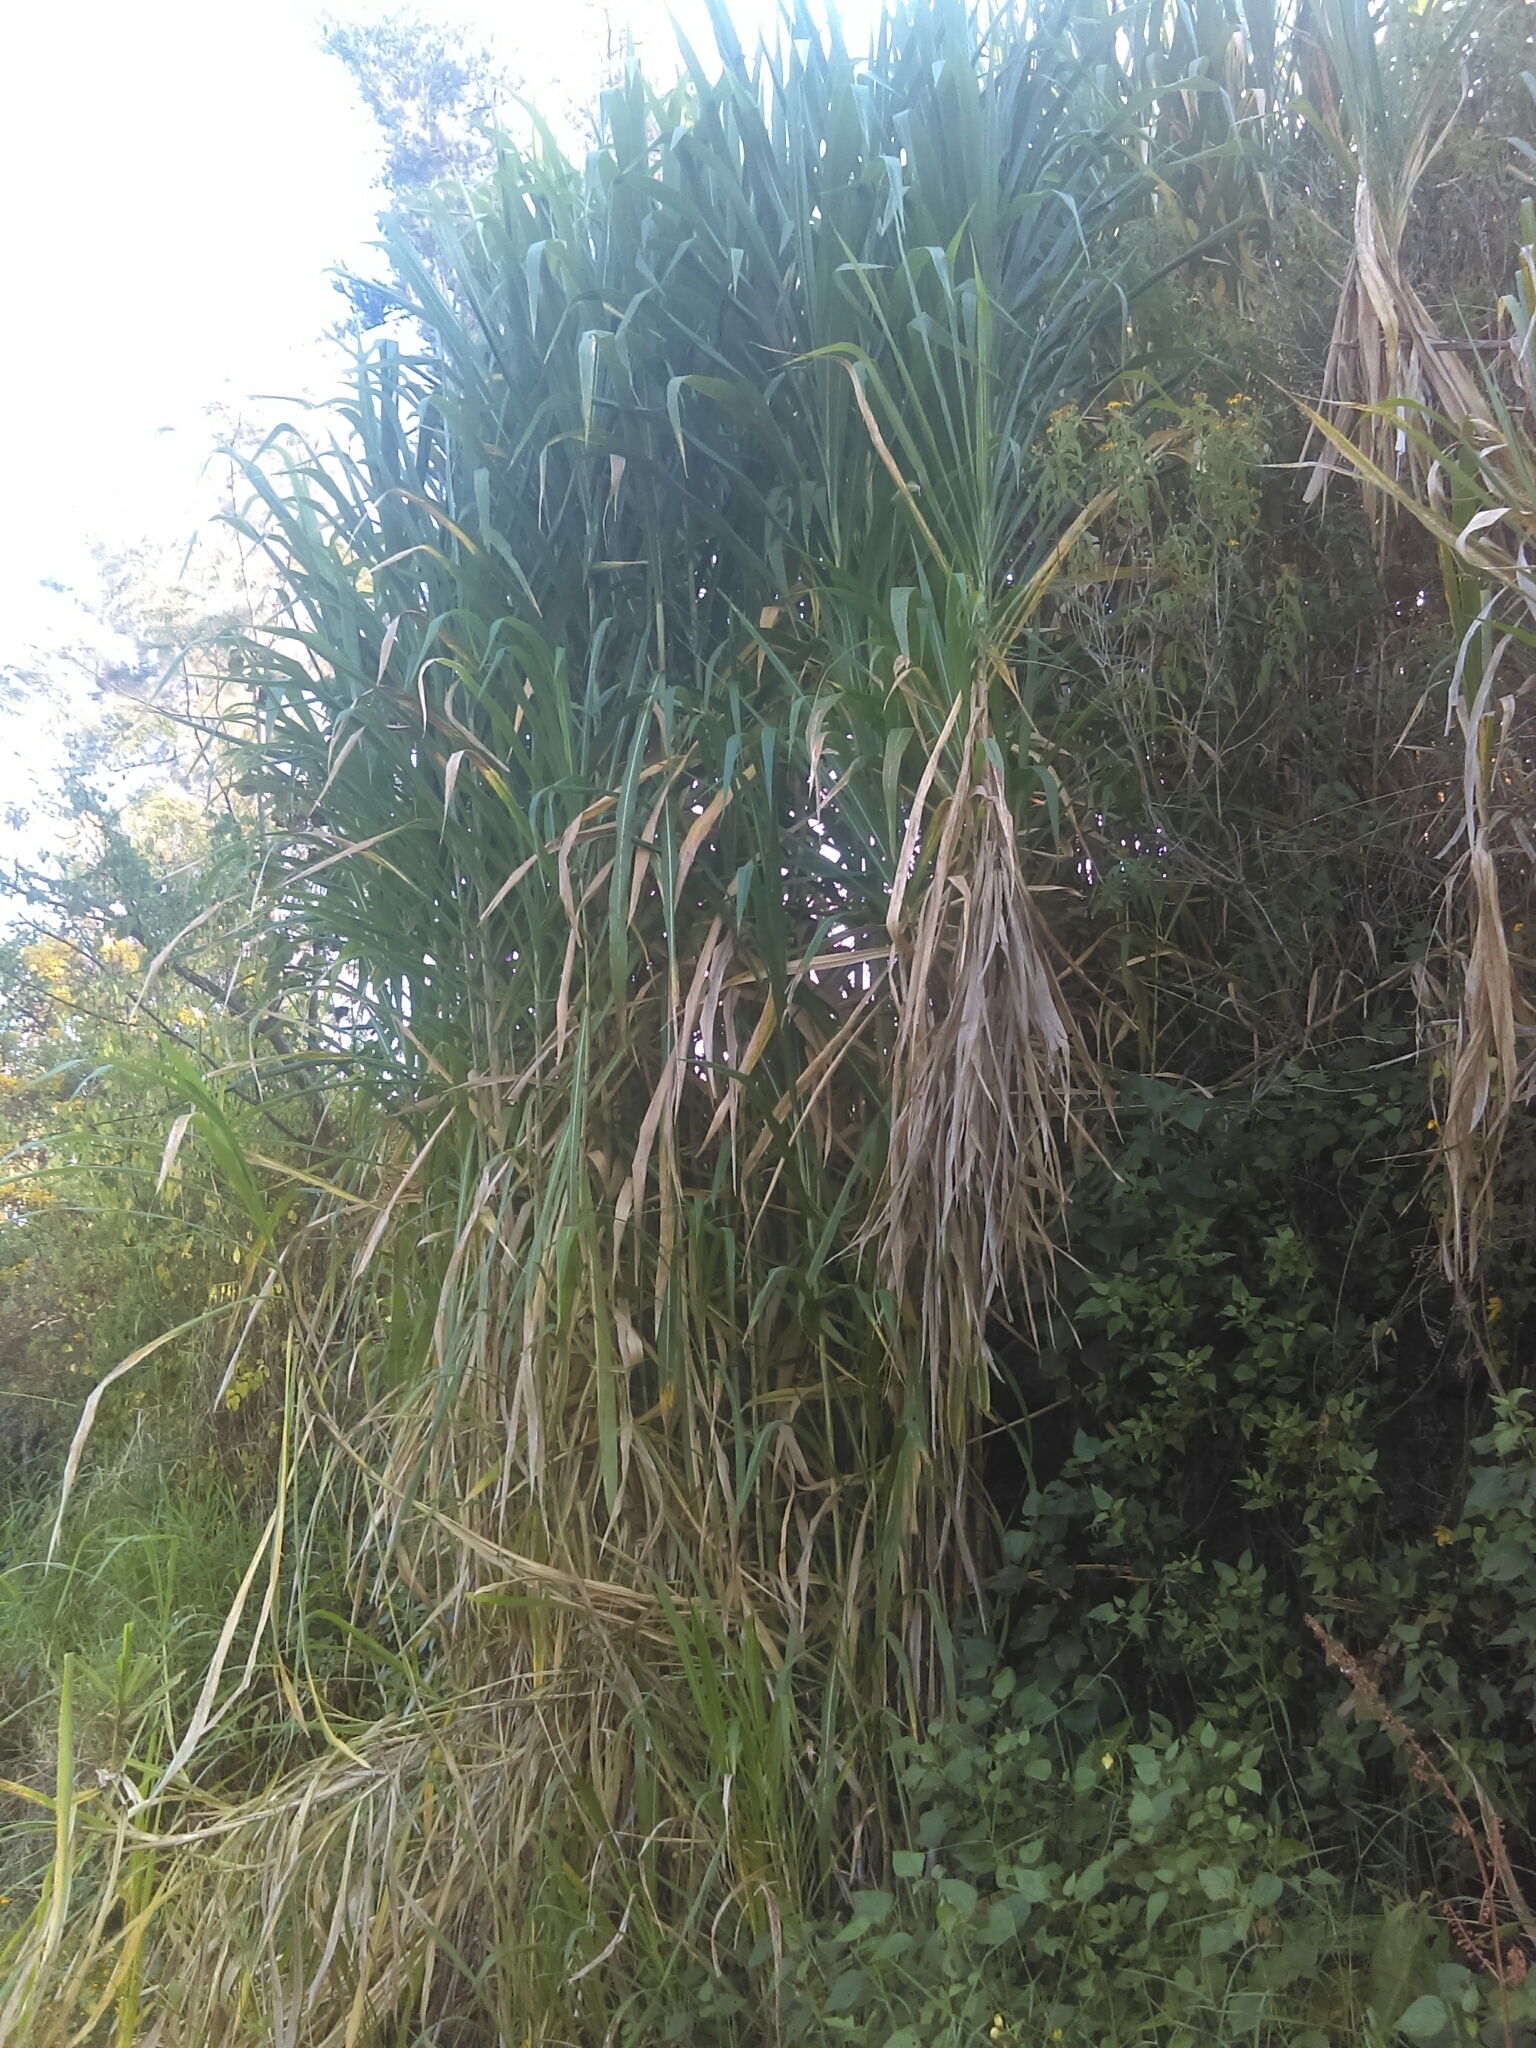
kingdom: Plantae
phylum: Tracheophyta
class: Liliopsida
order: Poales
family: Poaceae
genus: Arundo
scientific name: Arundo donax
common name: Giant reed
